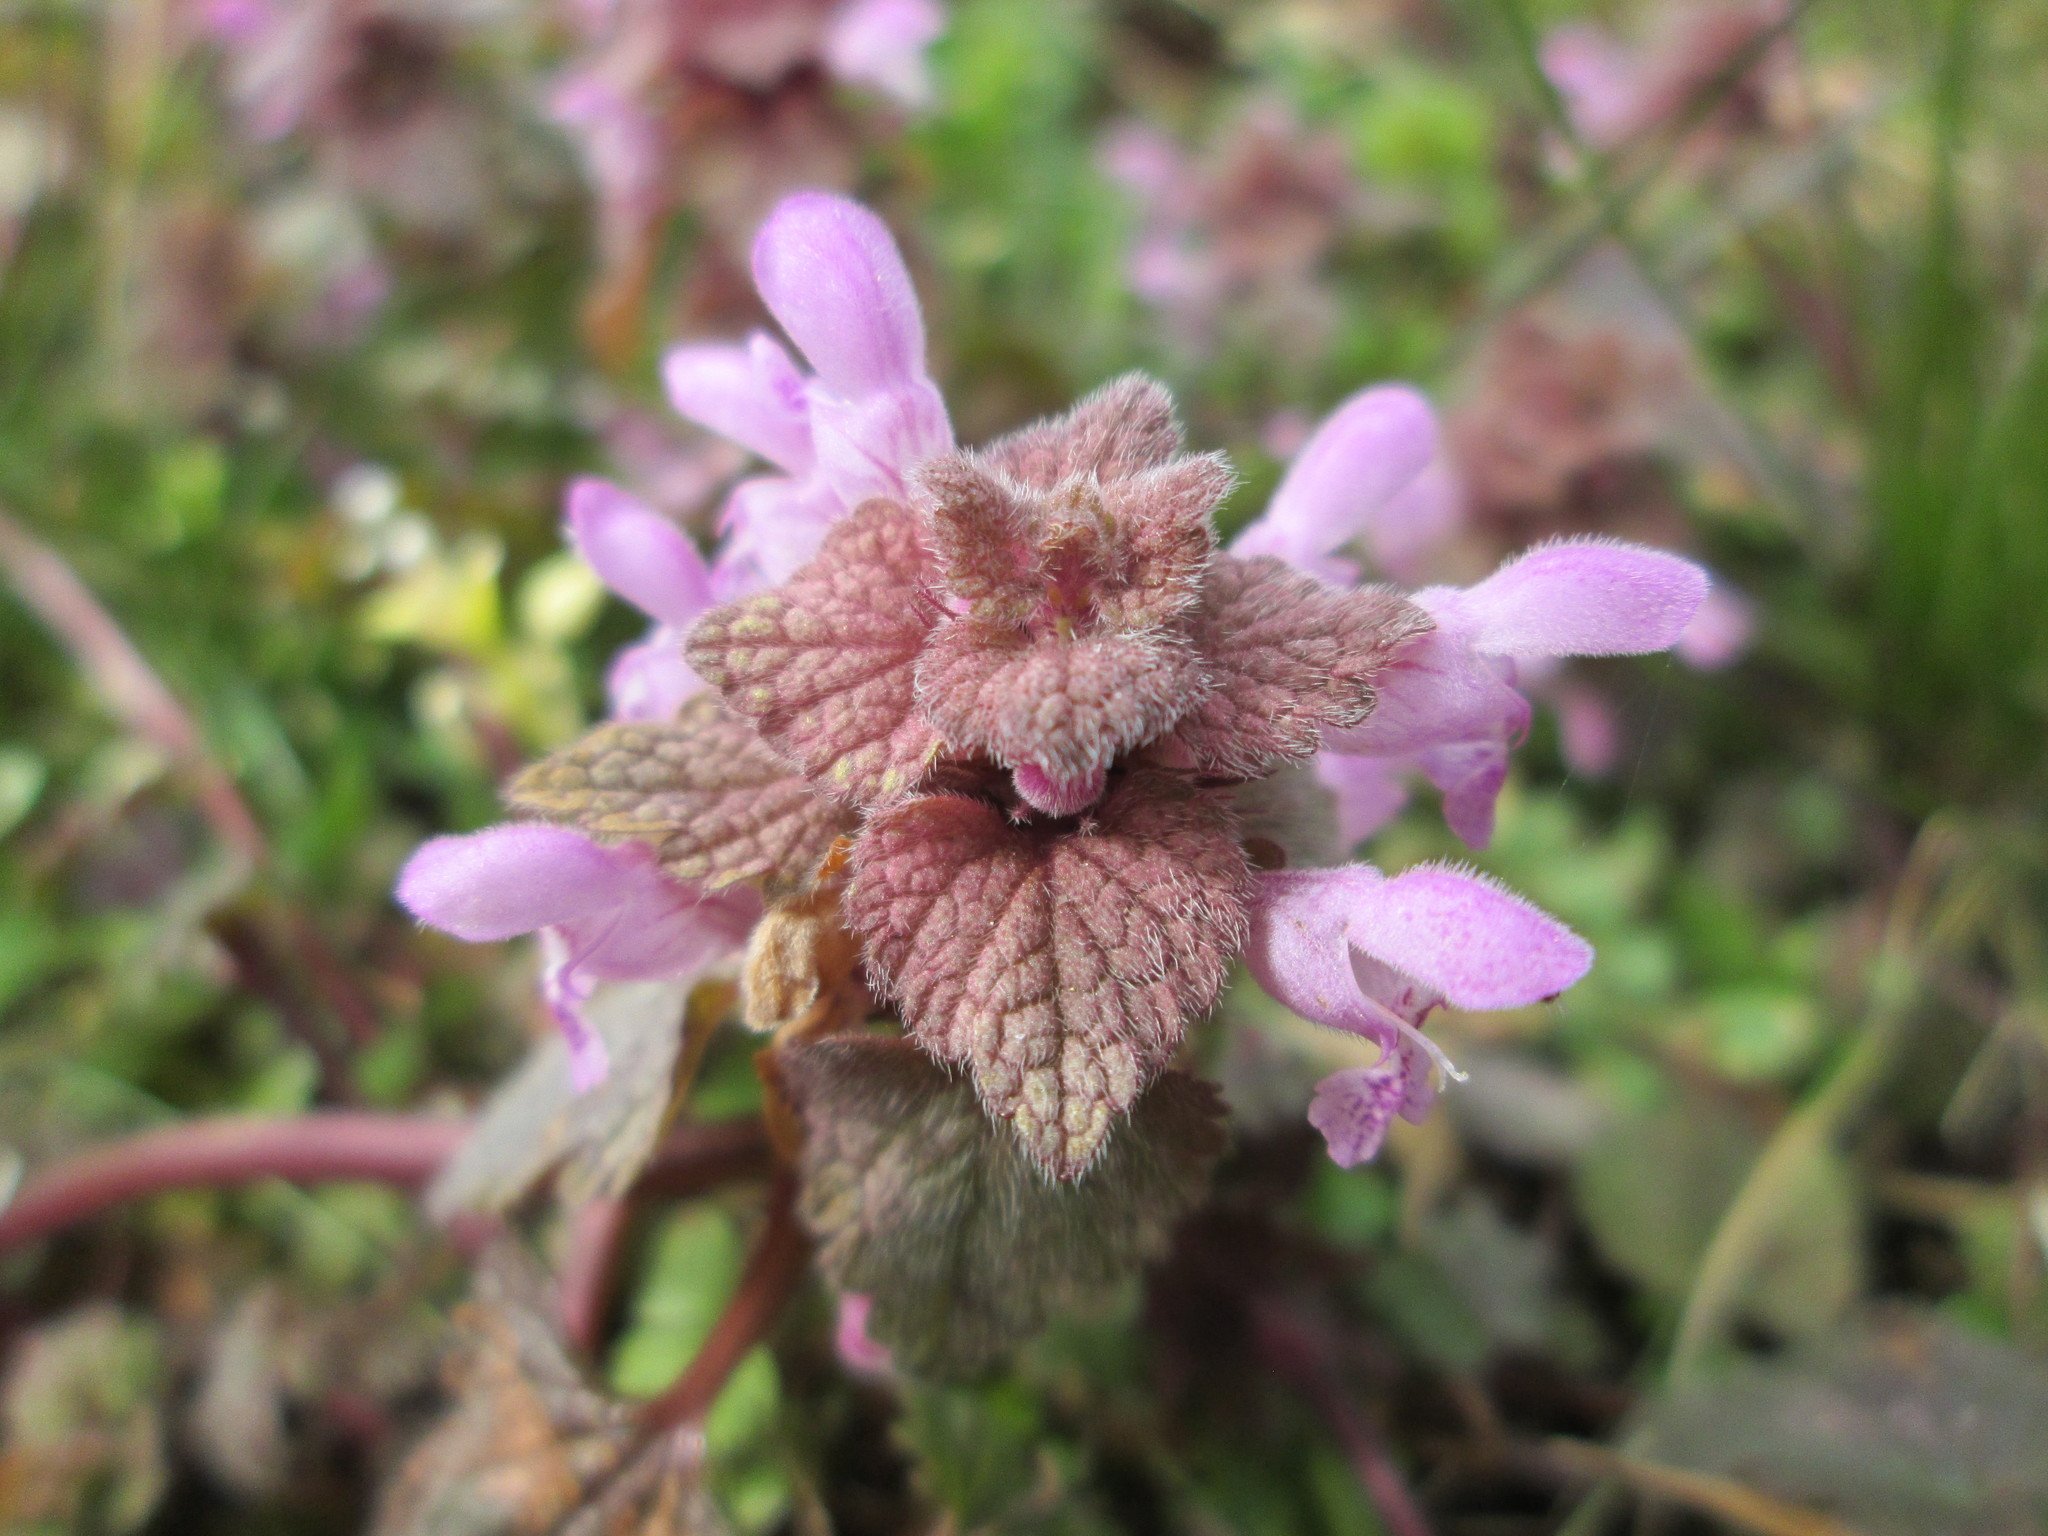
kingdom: Plantae
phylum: Tracheophyta
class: Magnoliopsida
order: Lamiales
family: Lamiaceae
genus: Lamium
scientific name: Lamium purpureum
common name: Red dead-nettle
